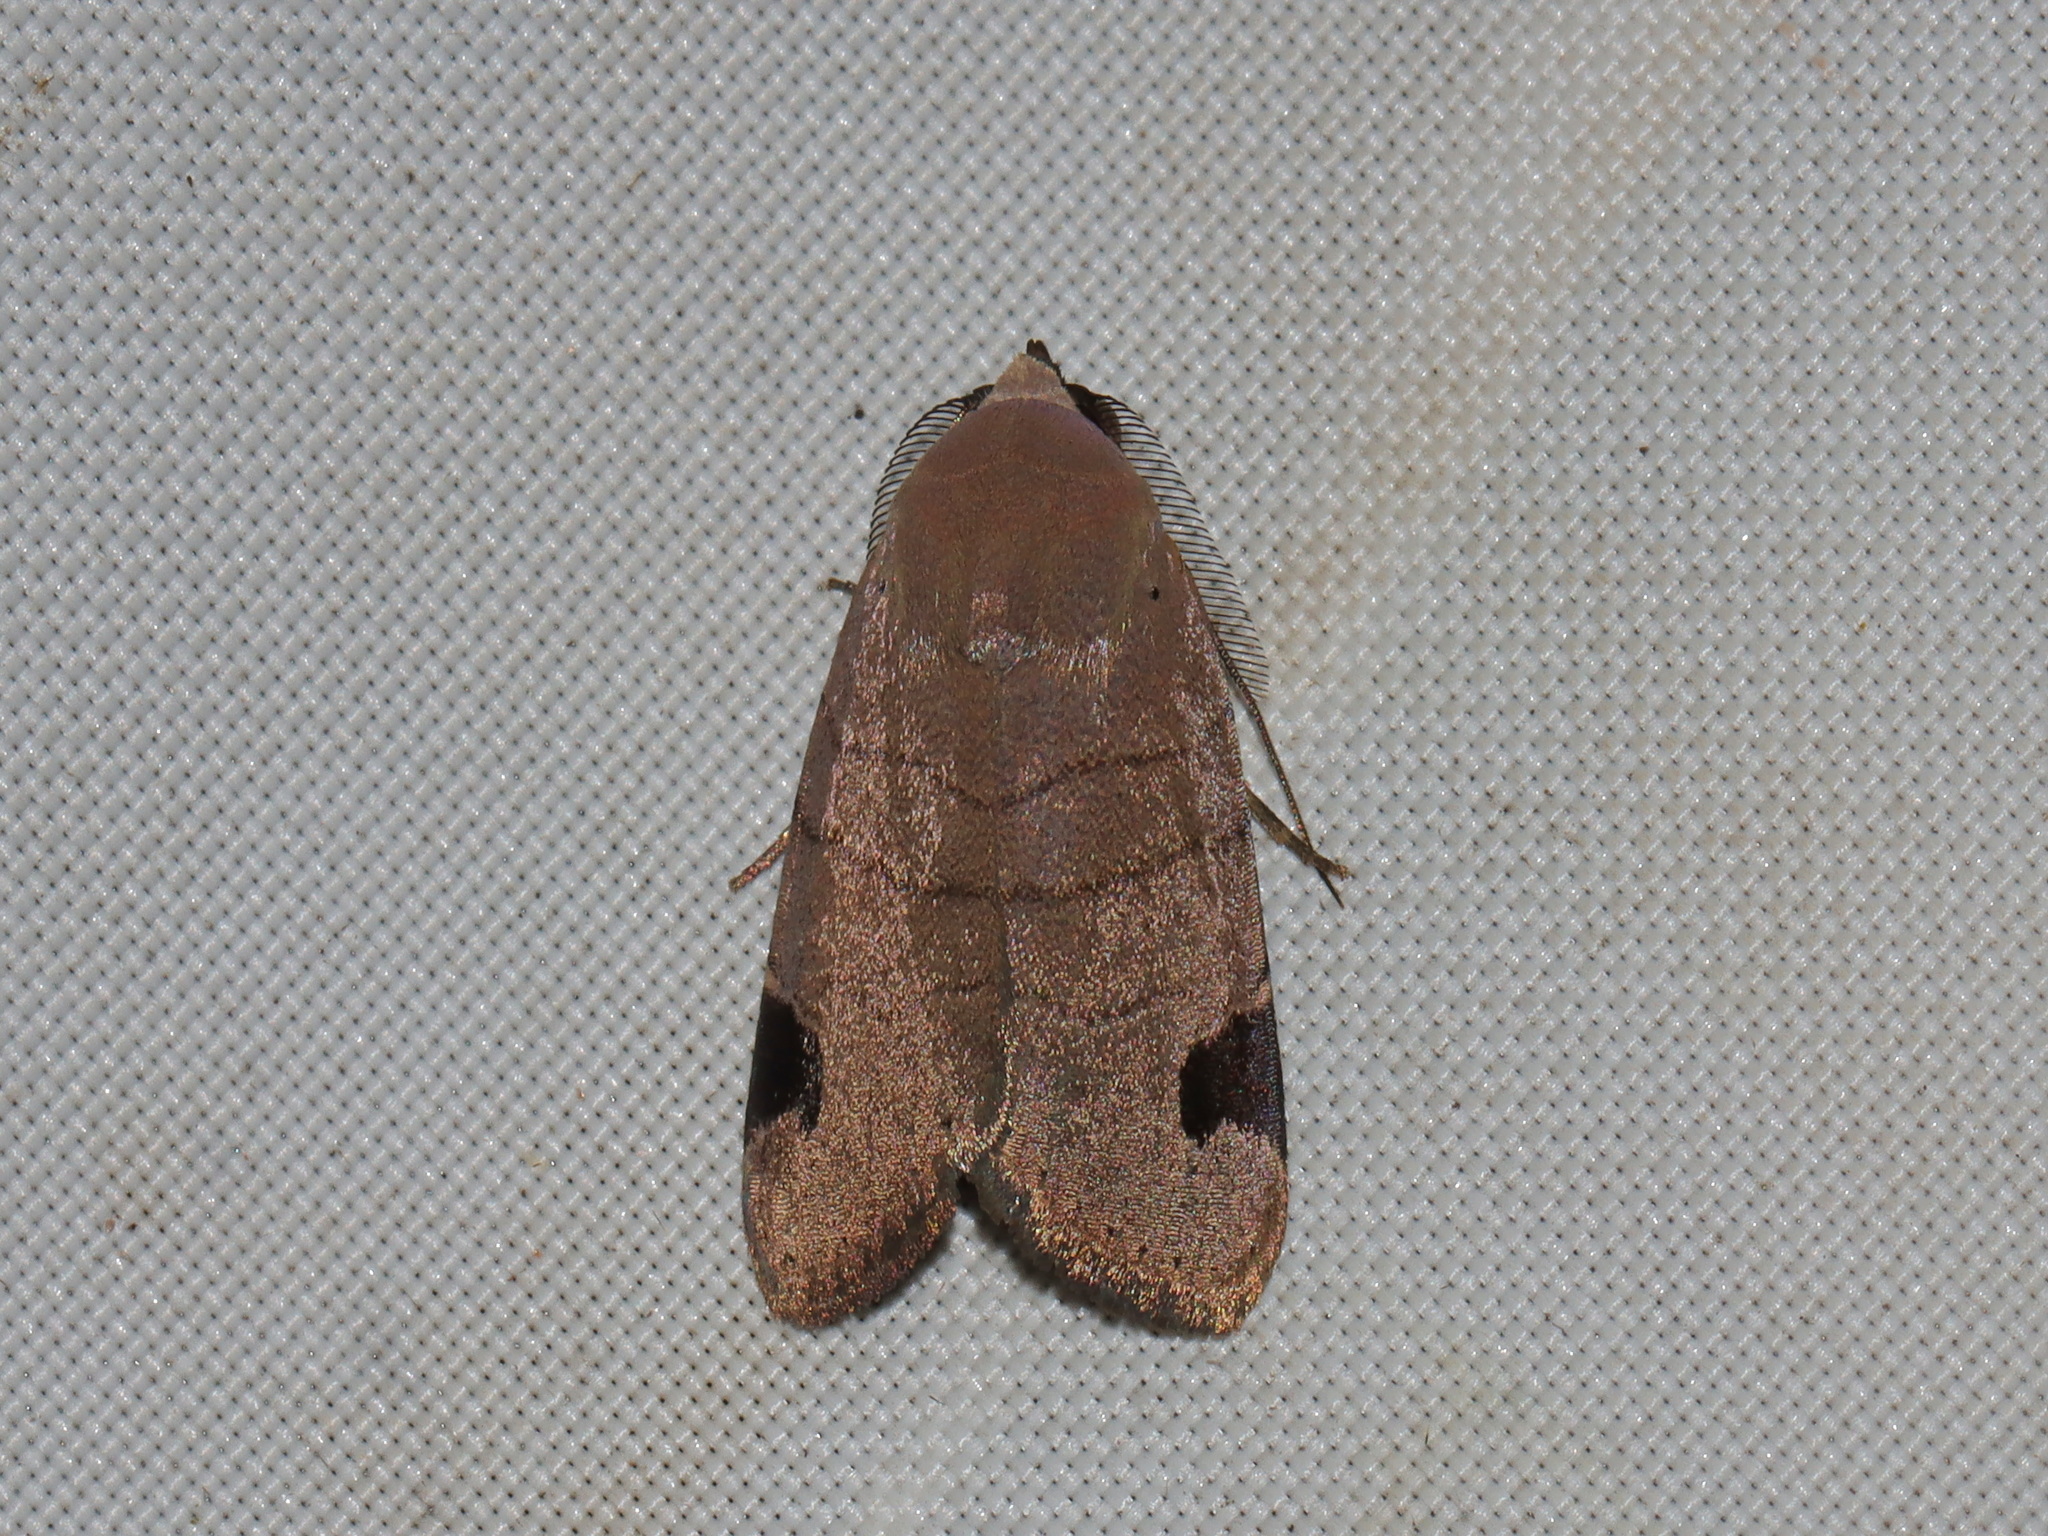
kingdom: Animalia
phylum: Arthropoda
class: Insecta
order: Lepidoptera
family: Noctuidae
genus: Dyrzela
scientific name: Dyrzela increnulata
